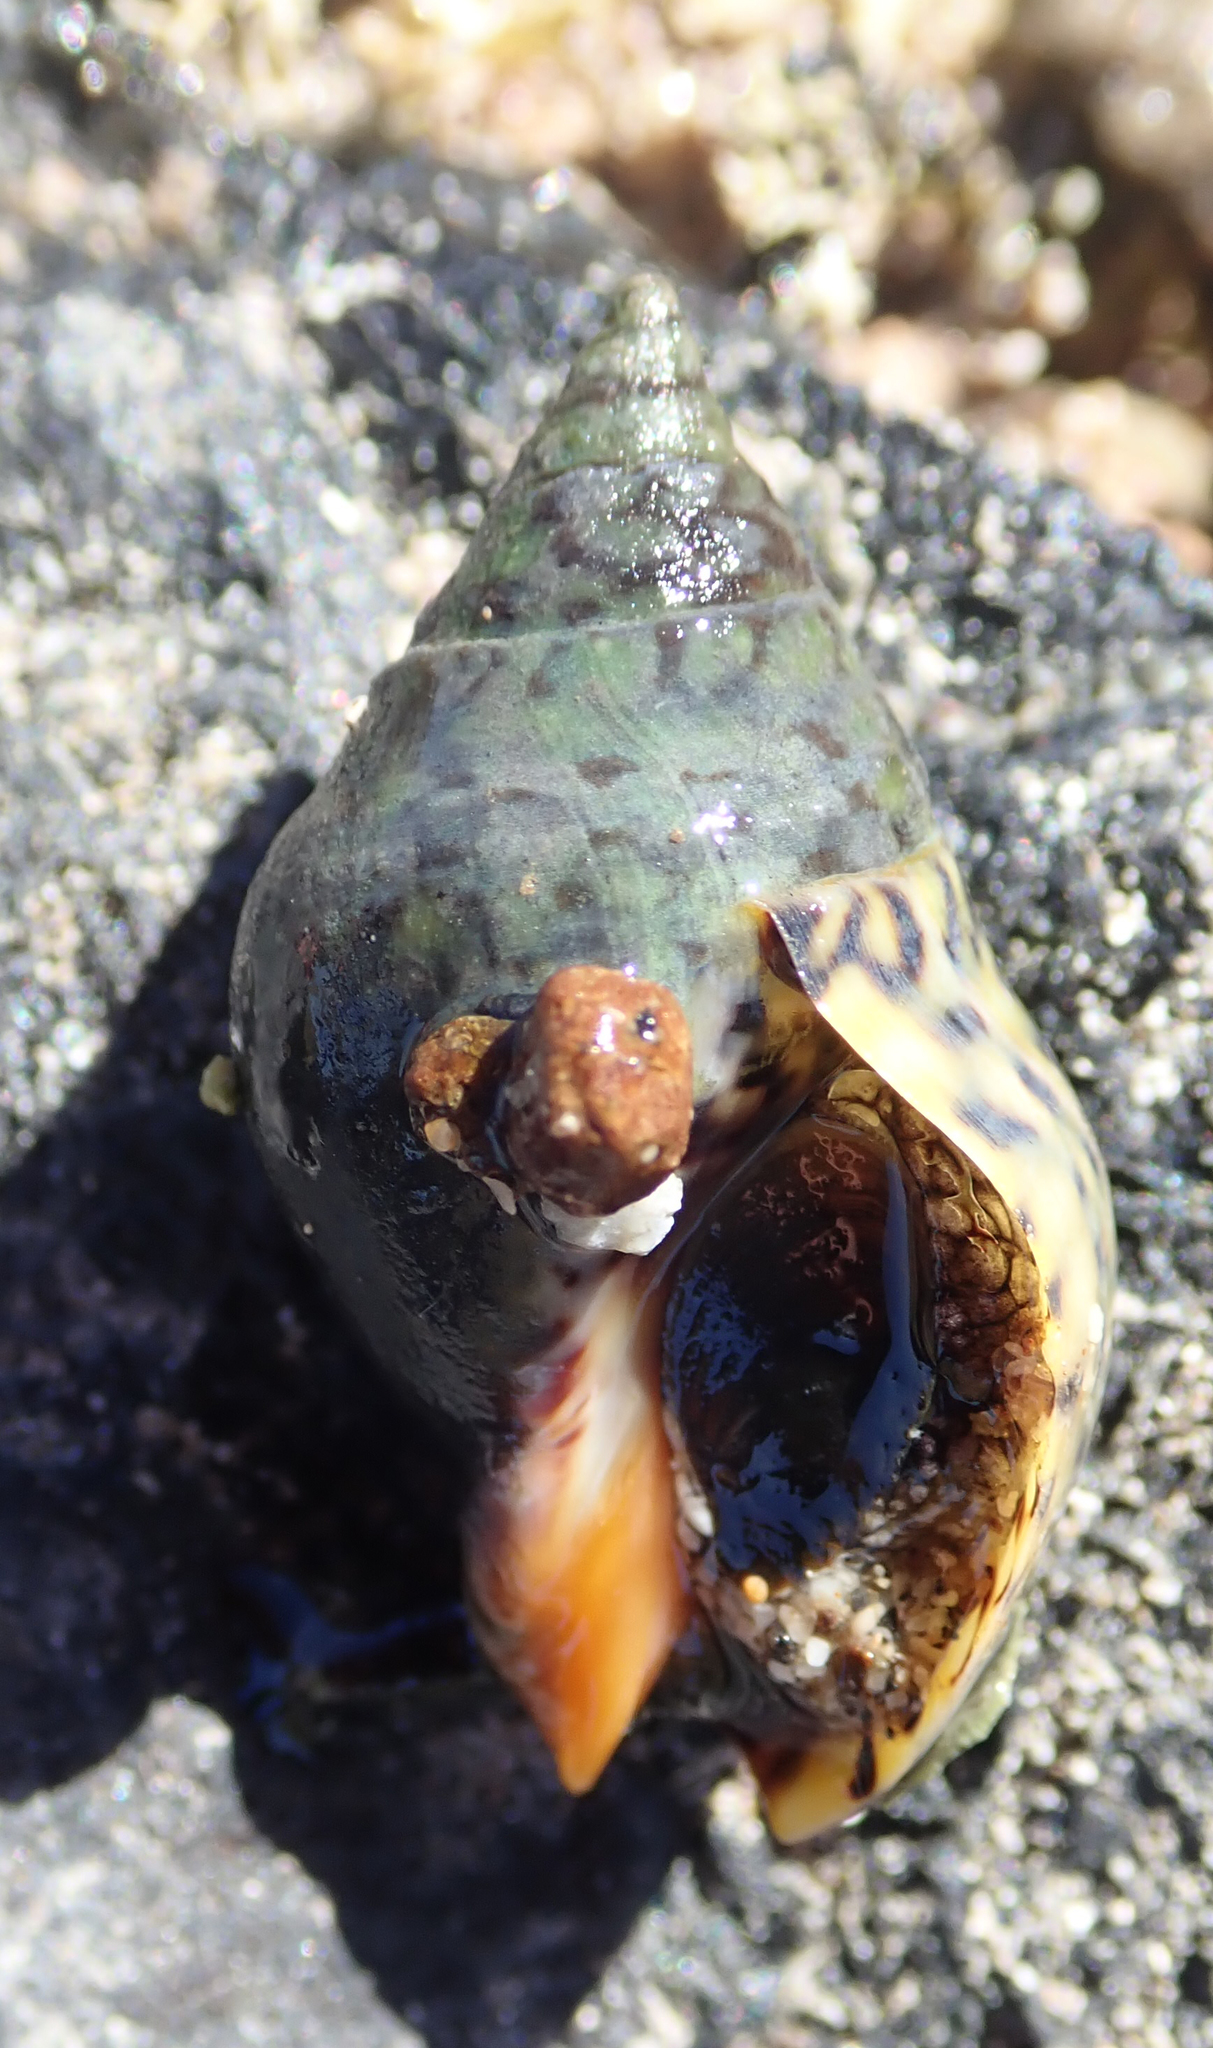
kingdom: Animalia
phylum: Mollusca
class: Gastropoda
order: Neogastropoda
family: Cominellidae
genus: Cominella
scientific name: Cominella maculosa
